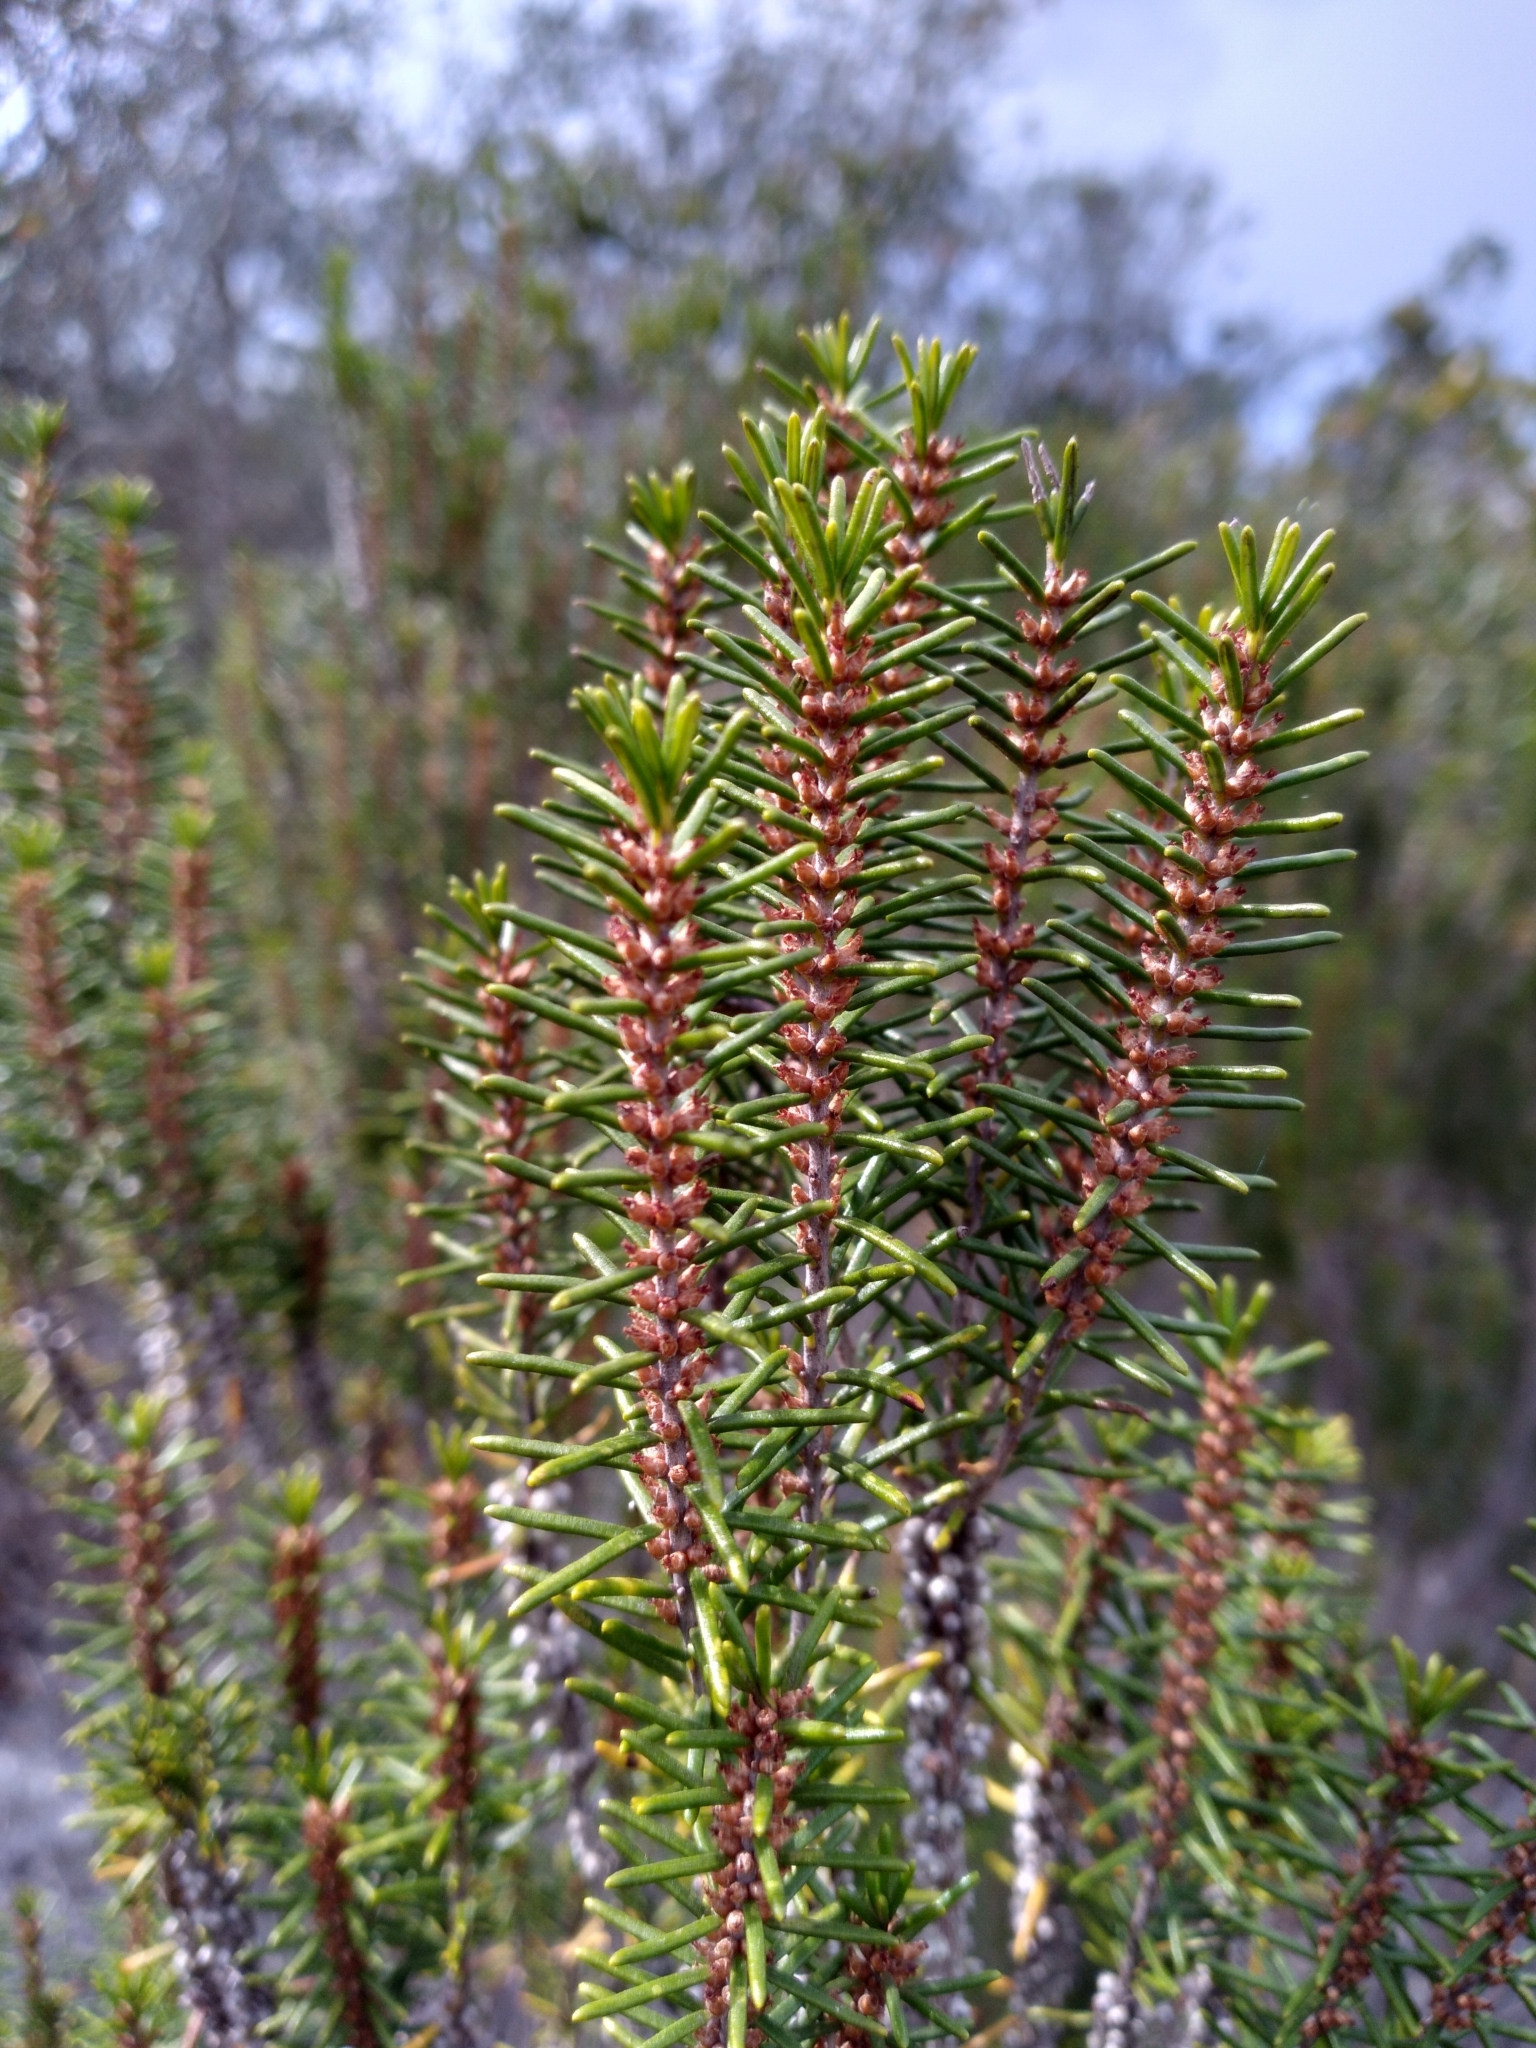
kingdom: Plantae
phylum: Tracheophyta
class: Magnoliopsida
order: Ericales
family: Ericaceae
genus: Ceratiola
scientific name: Ceratiola ericoides
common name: Sandhill-rosemary
